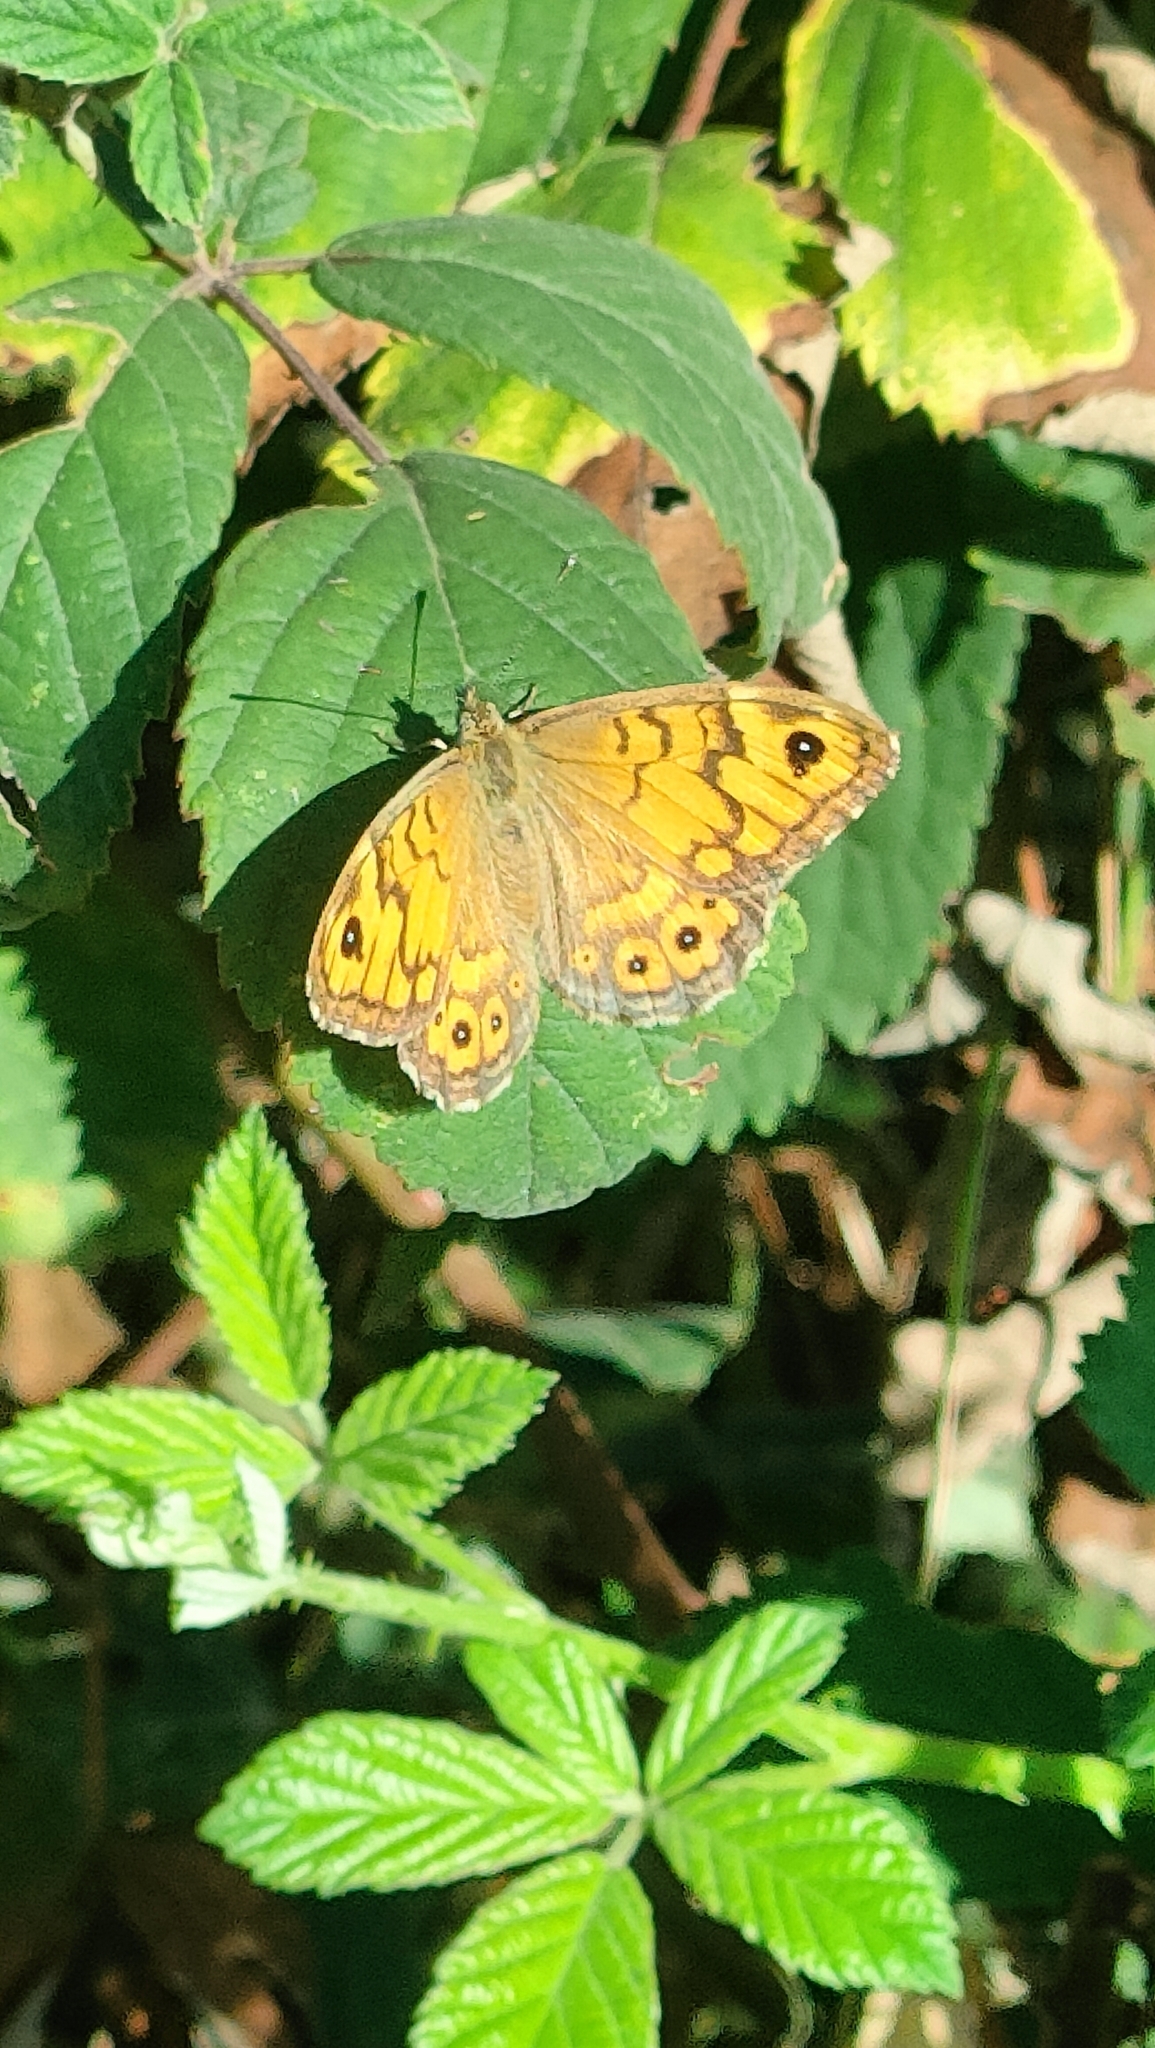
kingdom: Animalia
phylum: Arthropoda
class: Insecta
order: Lepidoptera
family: Nymphalidae
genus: Pararge
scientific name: Pararge Lasiommata megera
